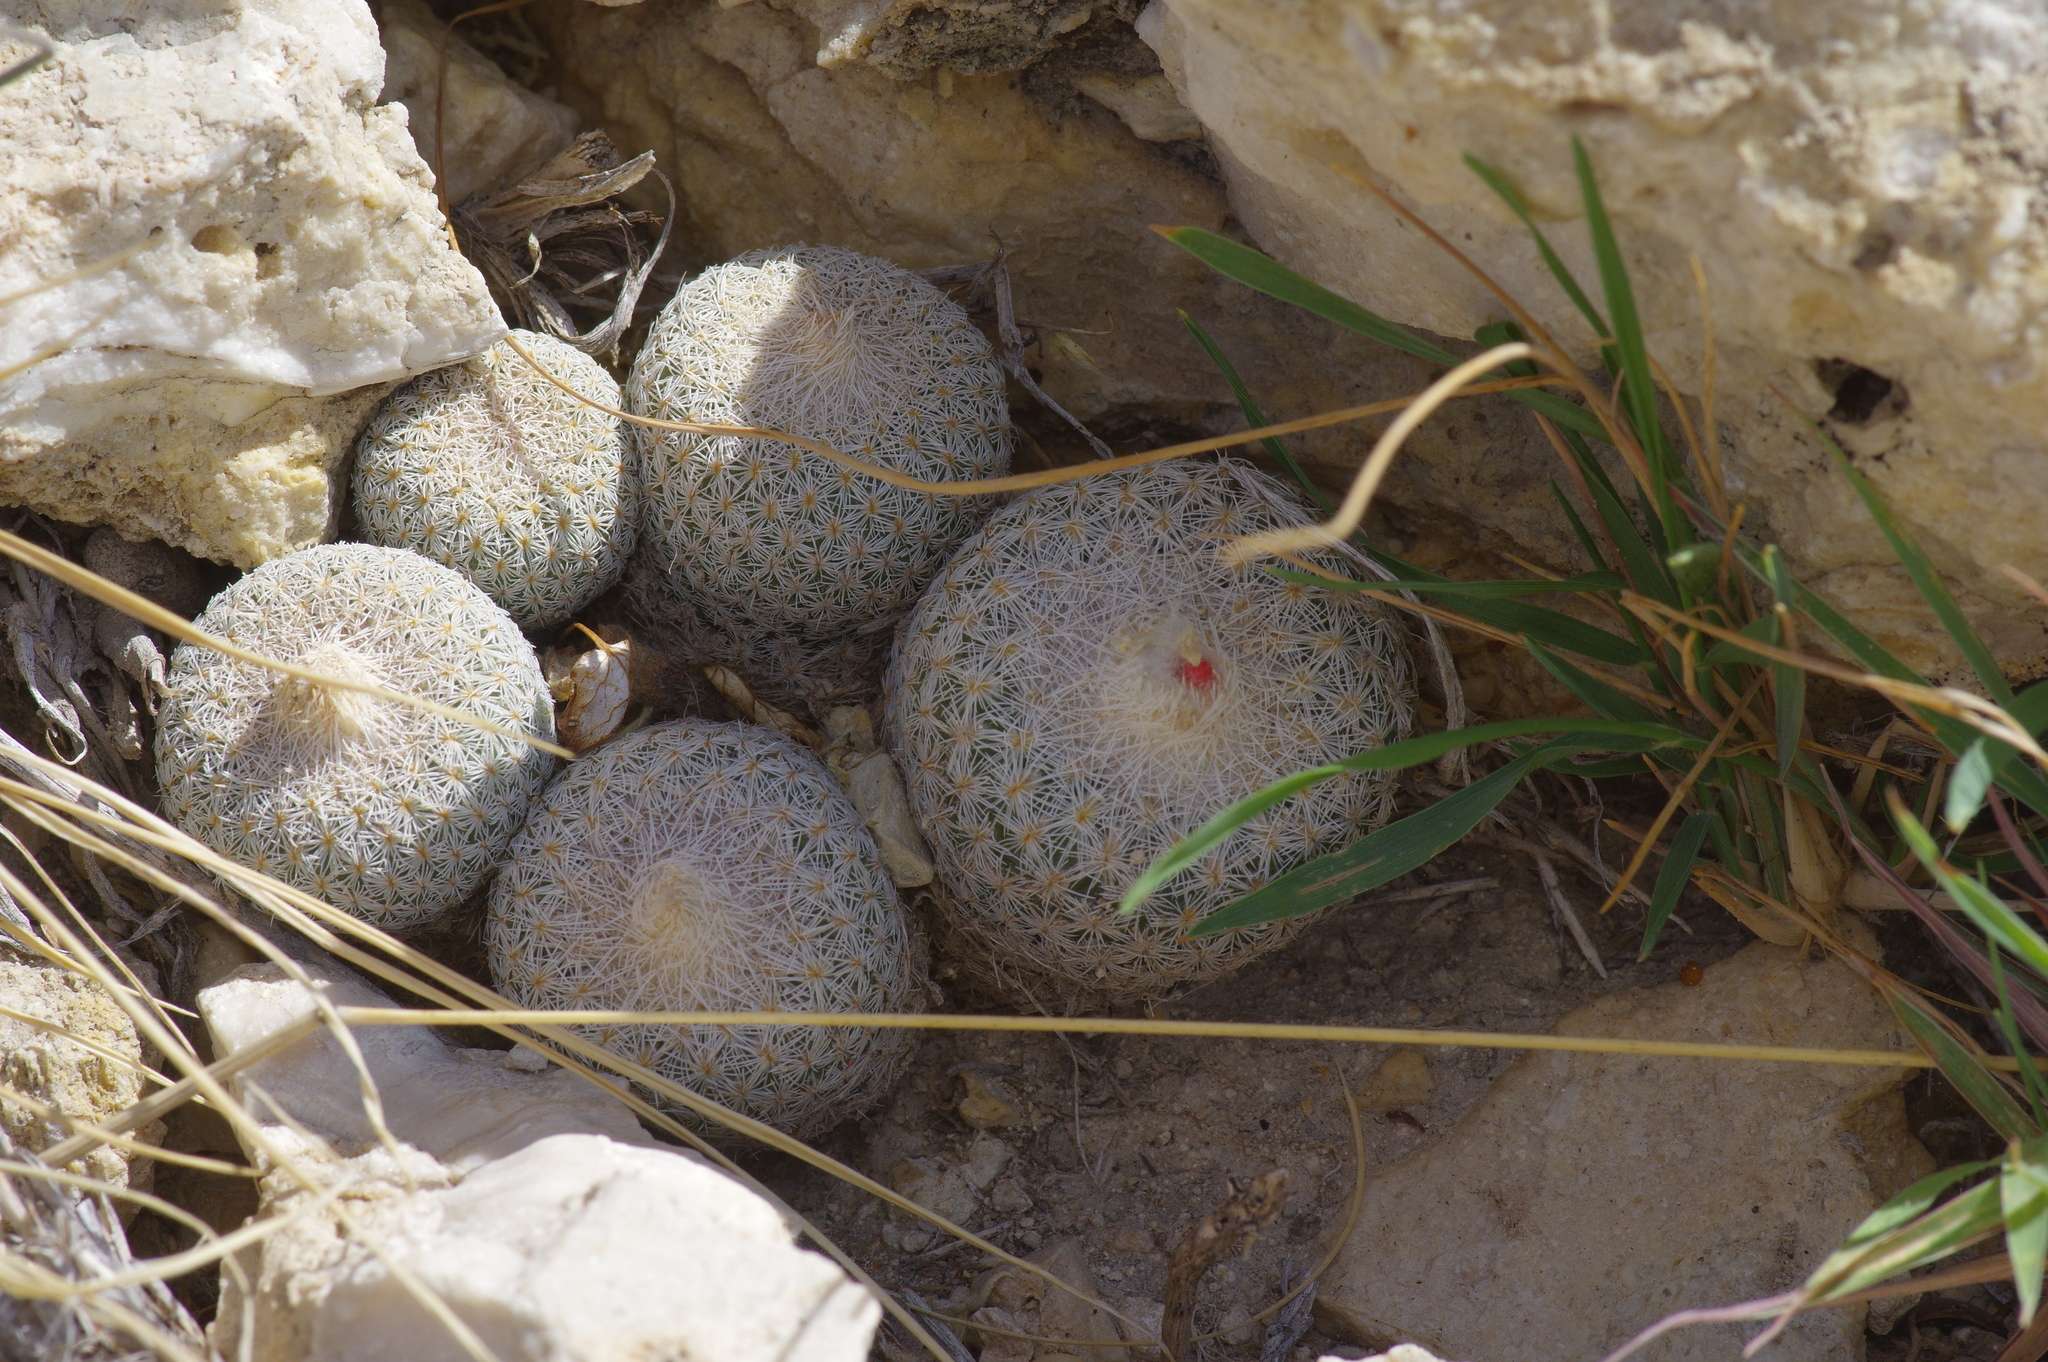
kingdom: Plantae
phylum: Tracheophyta
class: Magnoliopsida
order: Caryophyllales
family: Cactaceae
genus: Epithelantha
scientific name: Epithelantha micromeris
